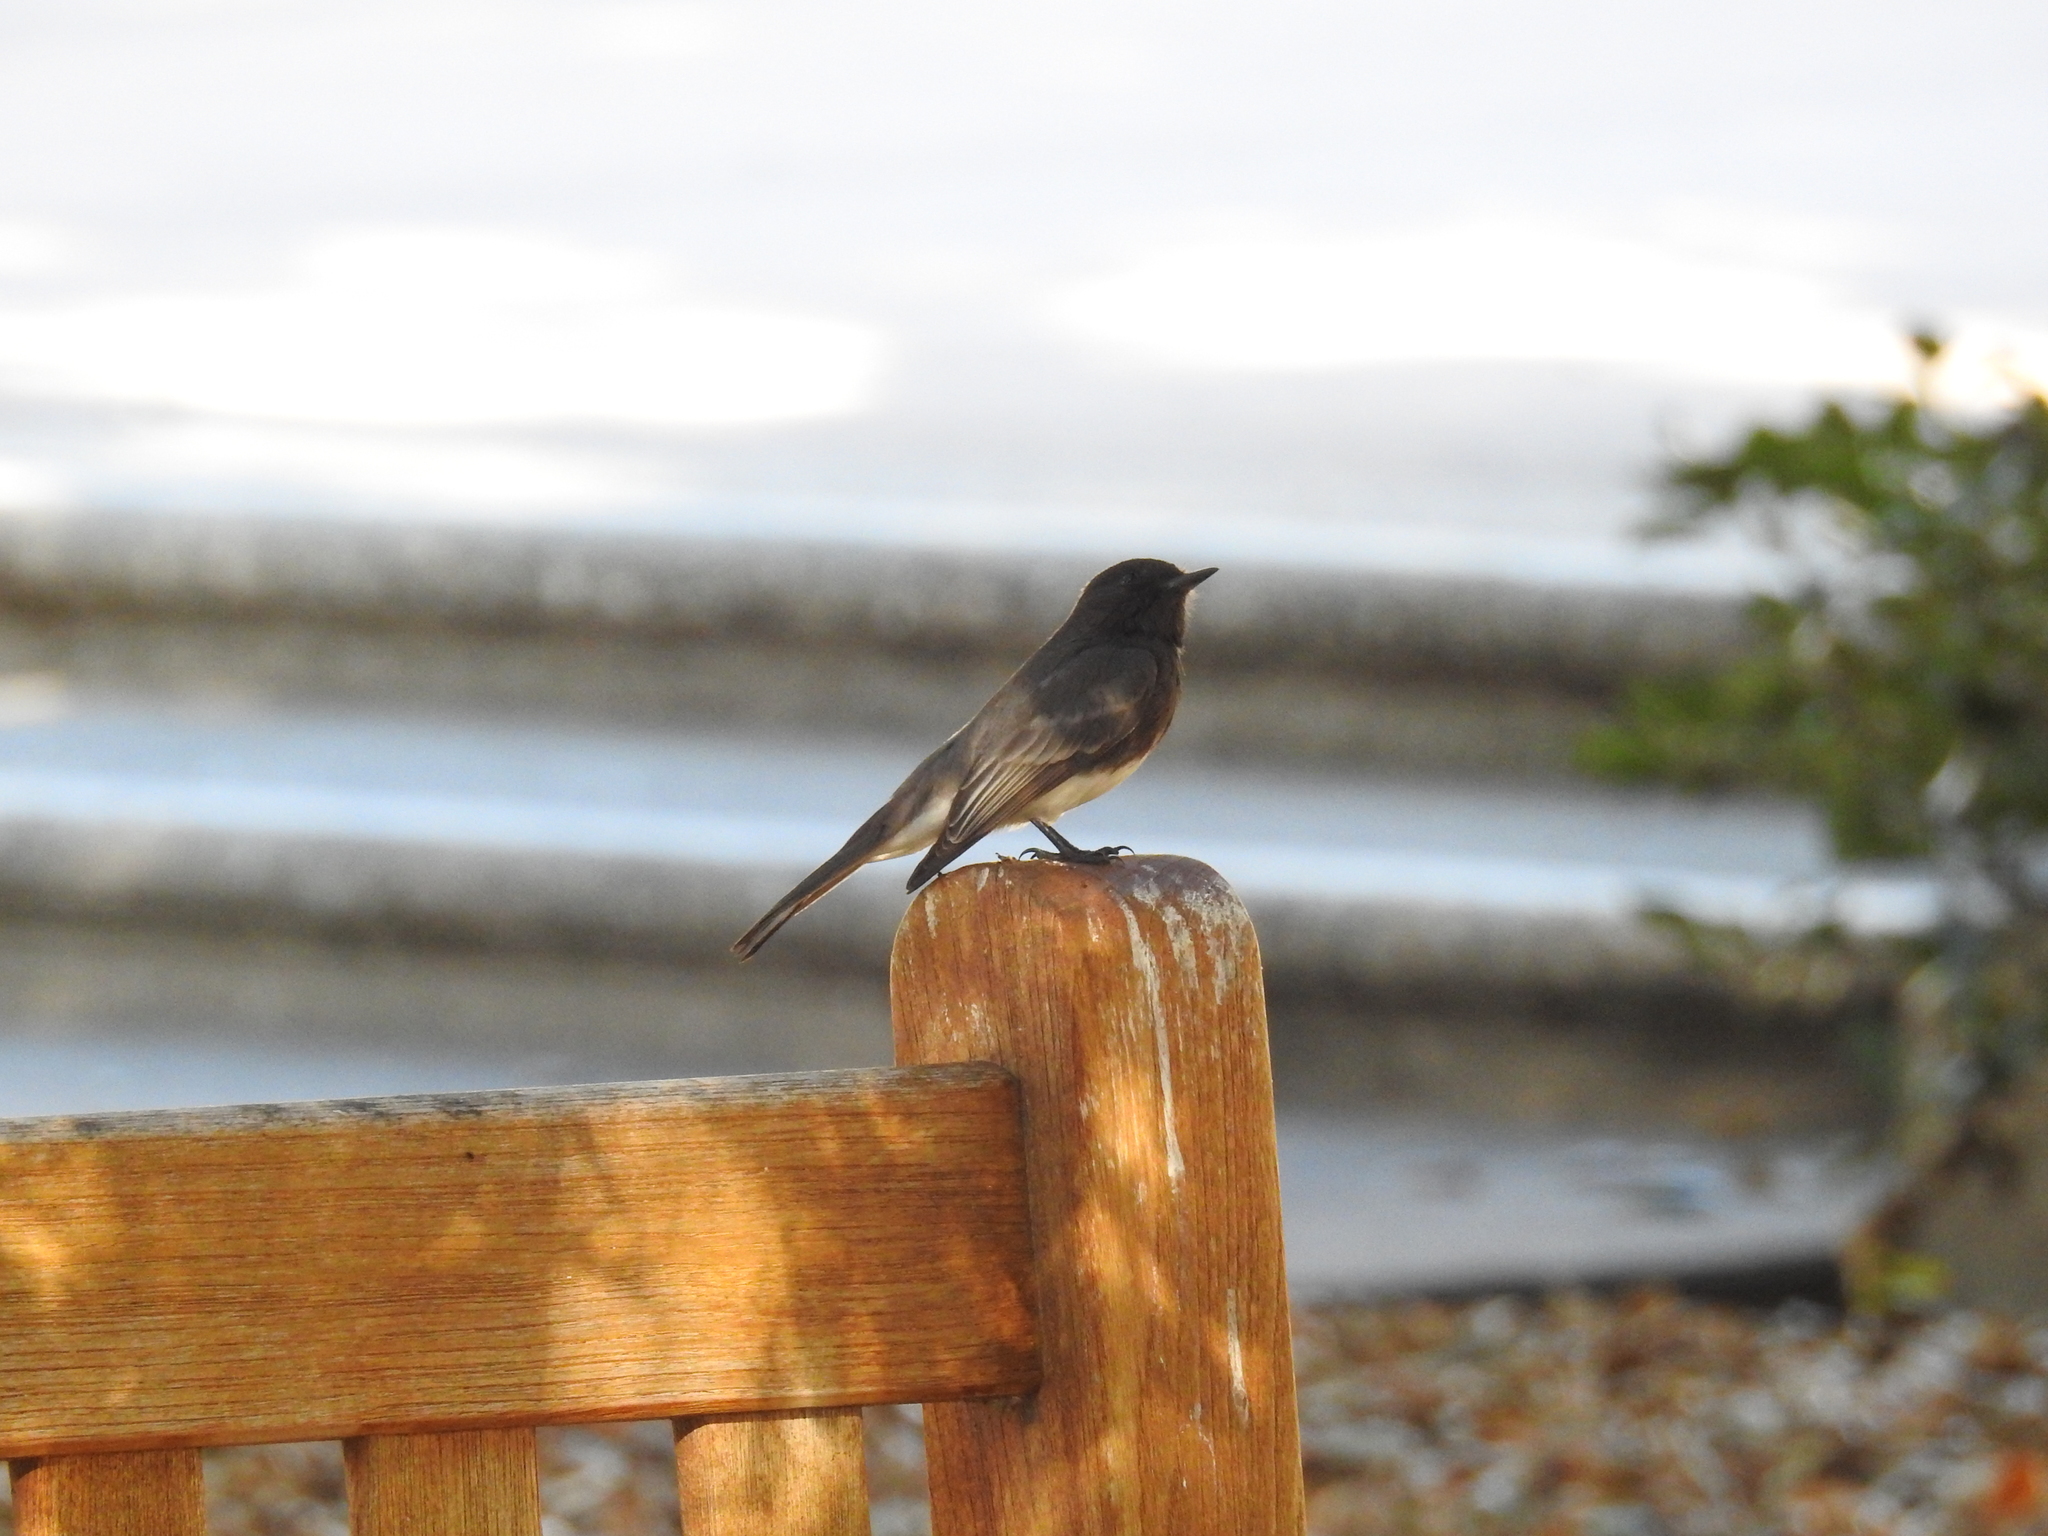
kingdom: Animalia
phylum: Chordata
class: Aves
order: Passeriformes
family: Tyrannidae
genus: Sayornis
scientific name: Sayornis nigricans
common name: Black phoebe
